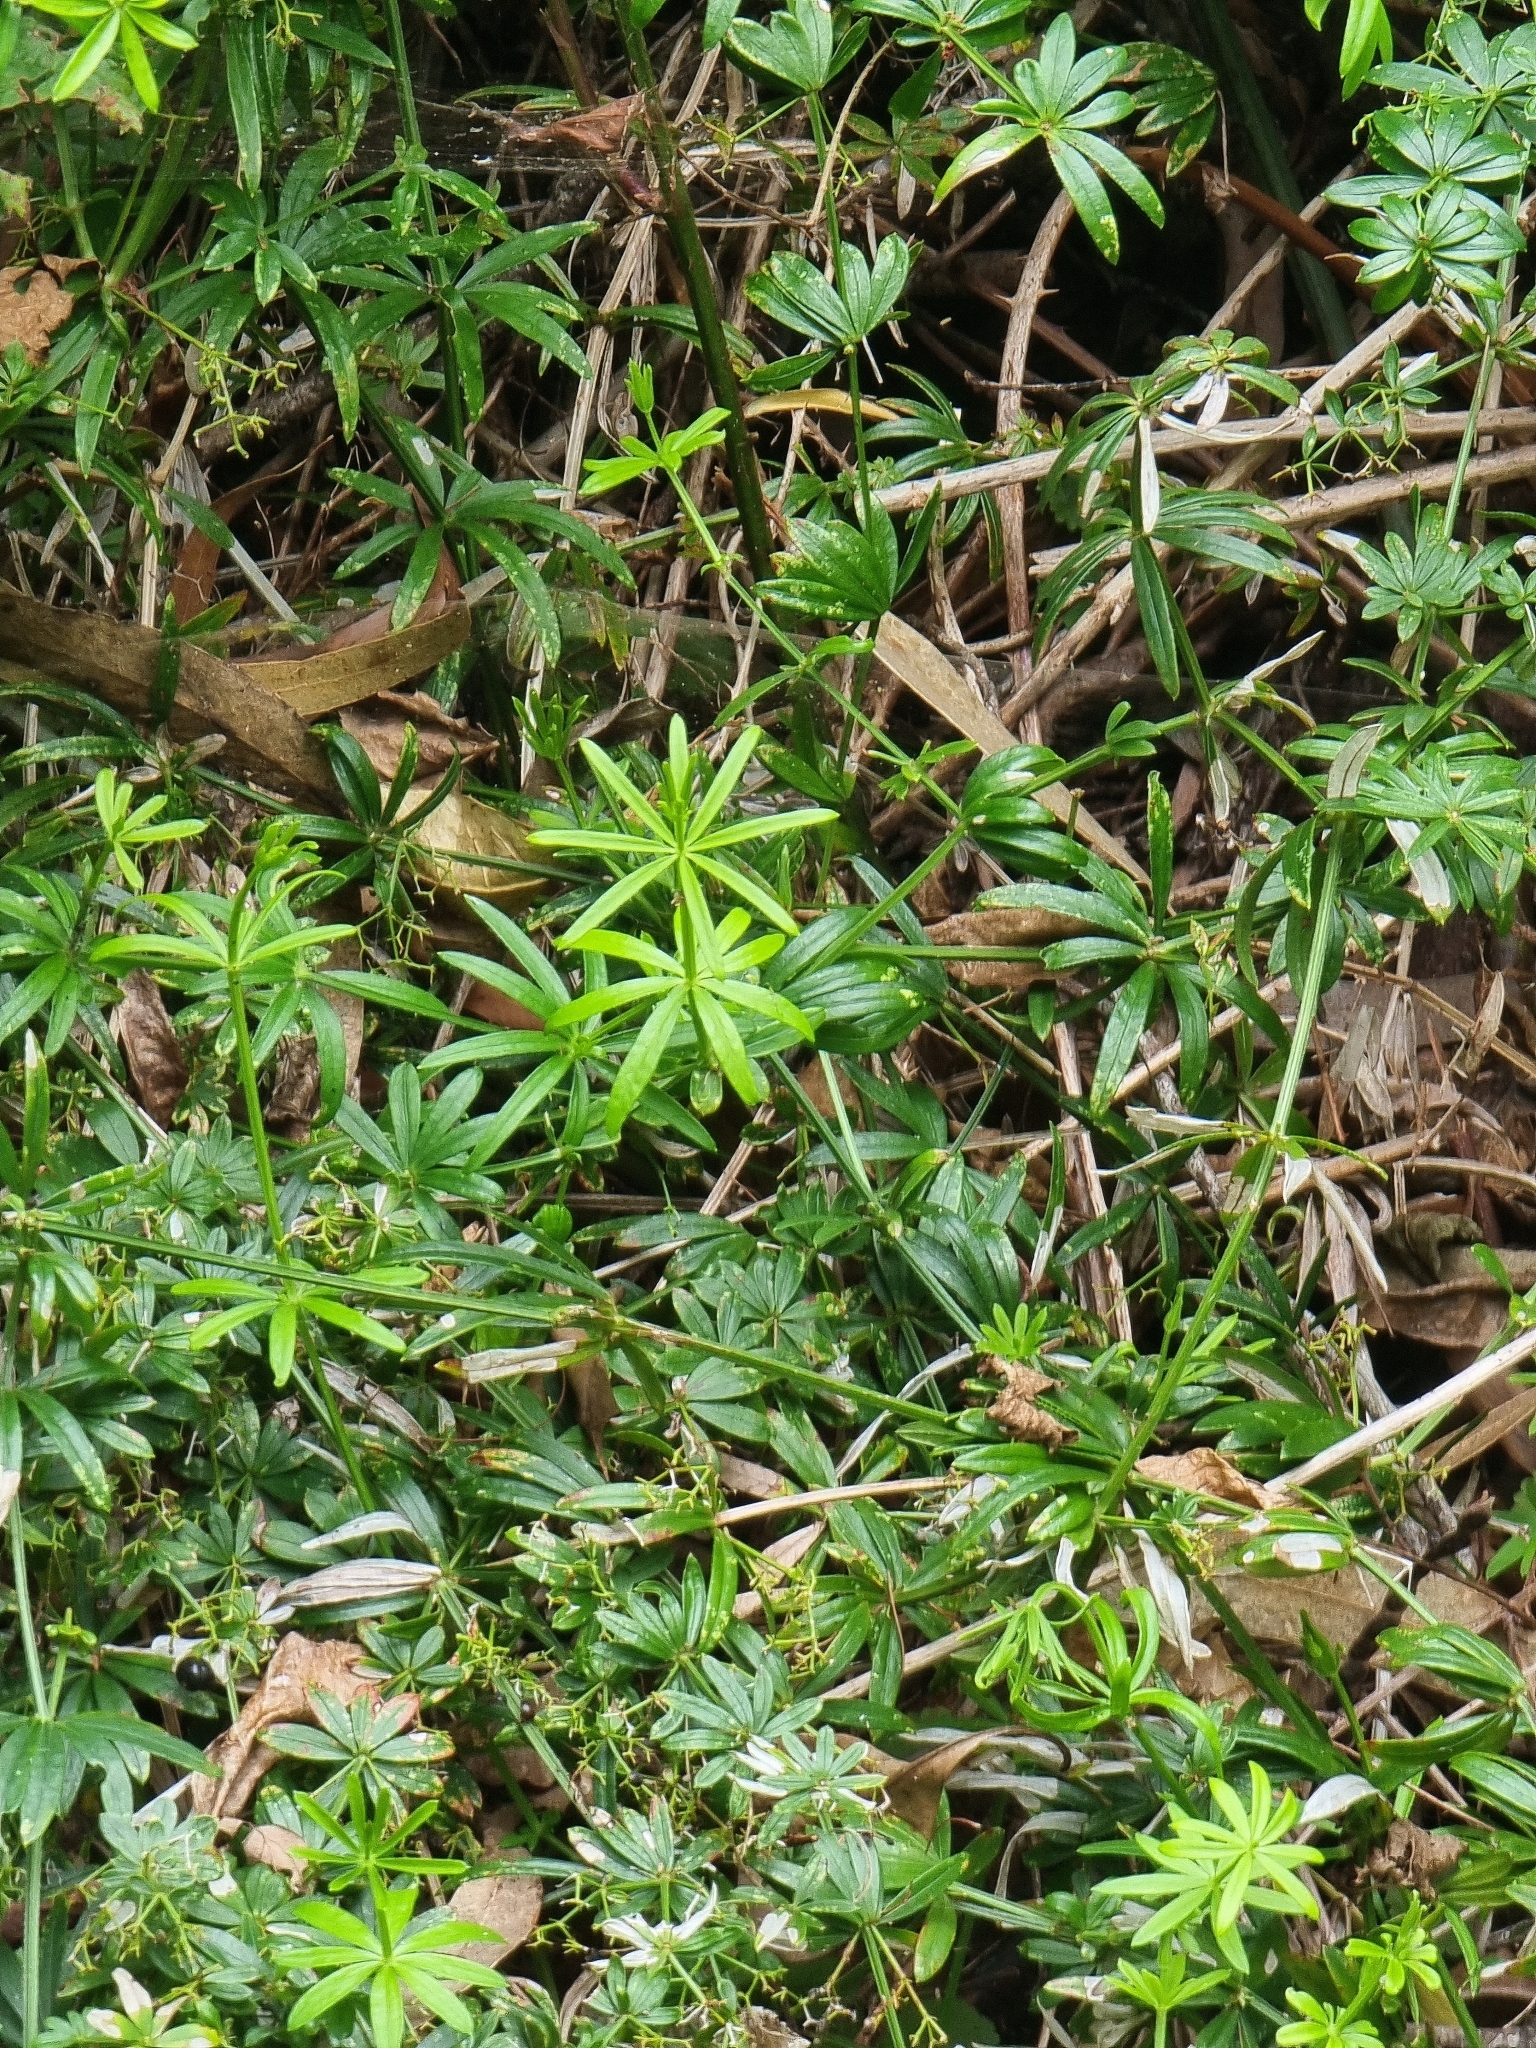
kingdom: Plantae
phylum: Tracheophyta
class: Magnoliopsida
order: Gentianales
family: Rubiaceae
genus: Rubia
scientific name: Rubia occidens
